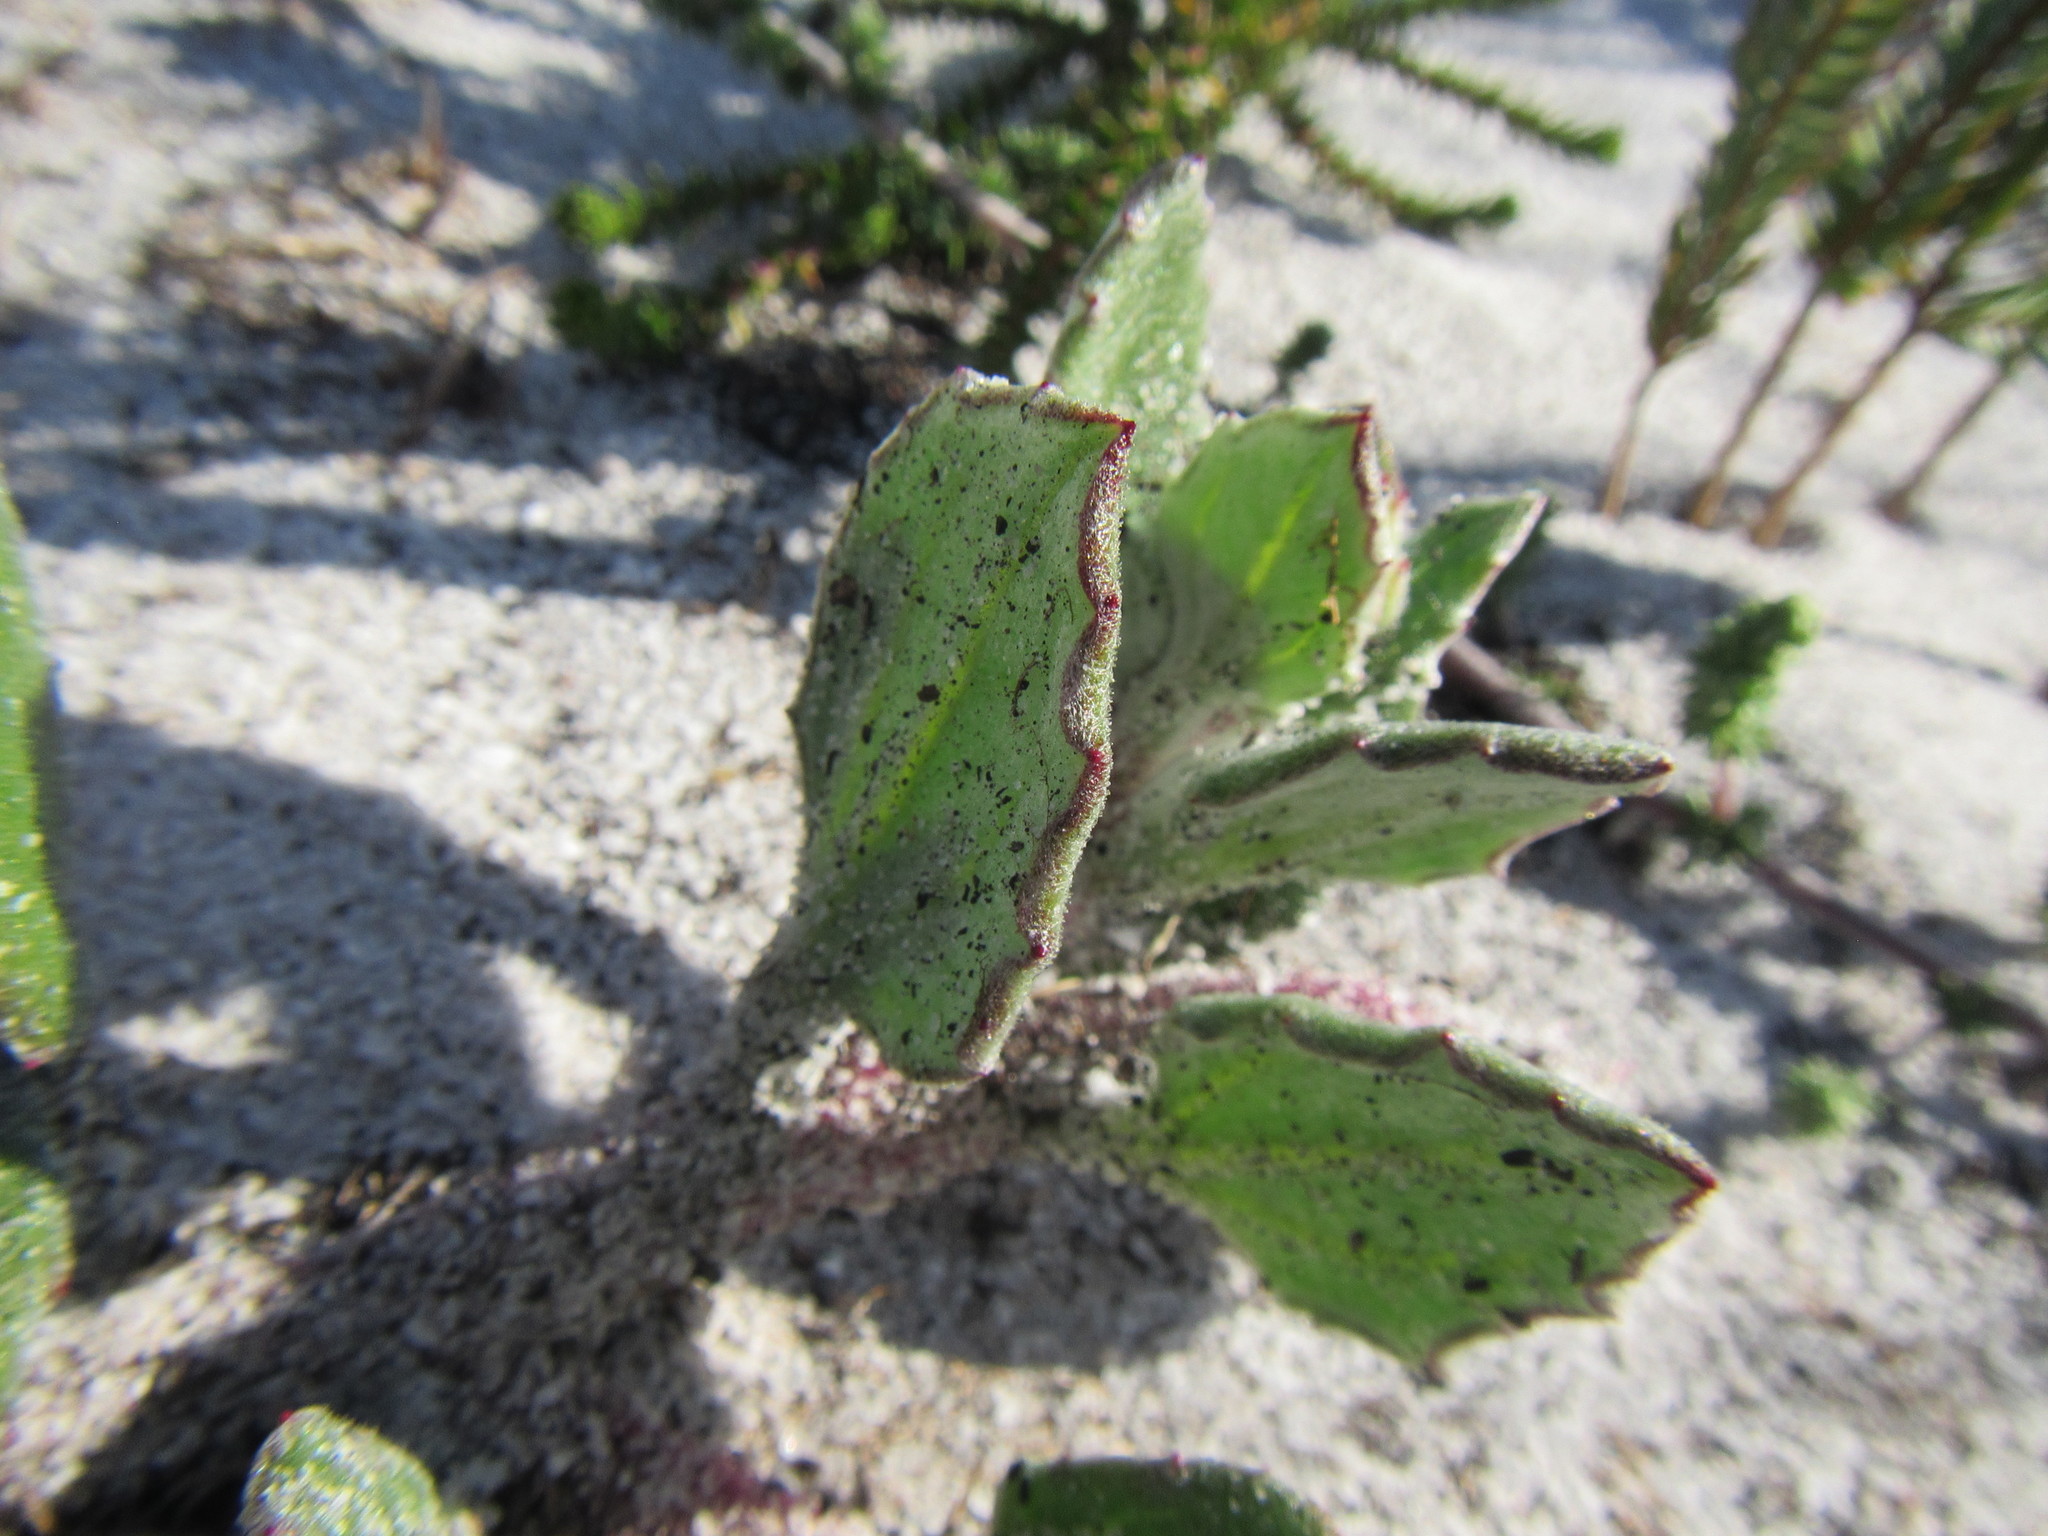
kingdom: Plantae
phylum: Tracheophyta
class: Magnoliopsida
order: Asterales
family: Asteraceae
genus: Arctotis
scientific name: Arctotis angustifolia
